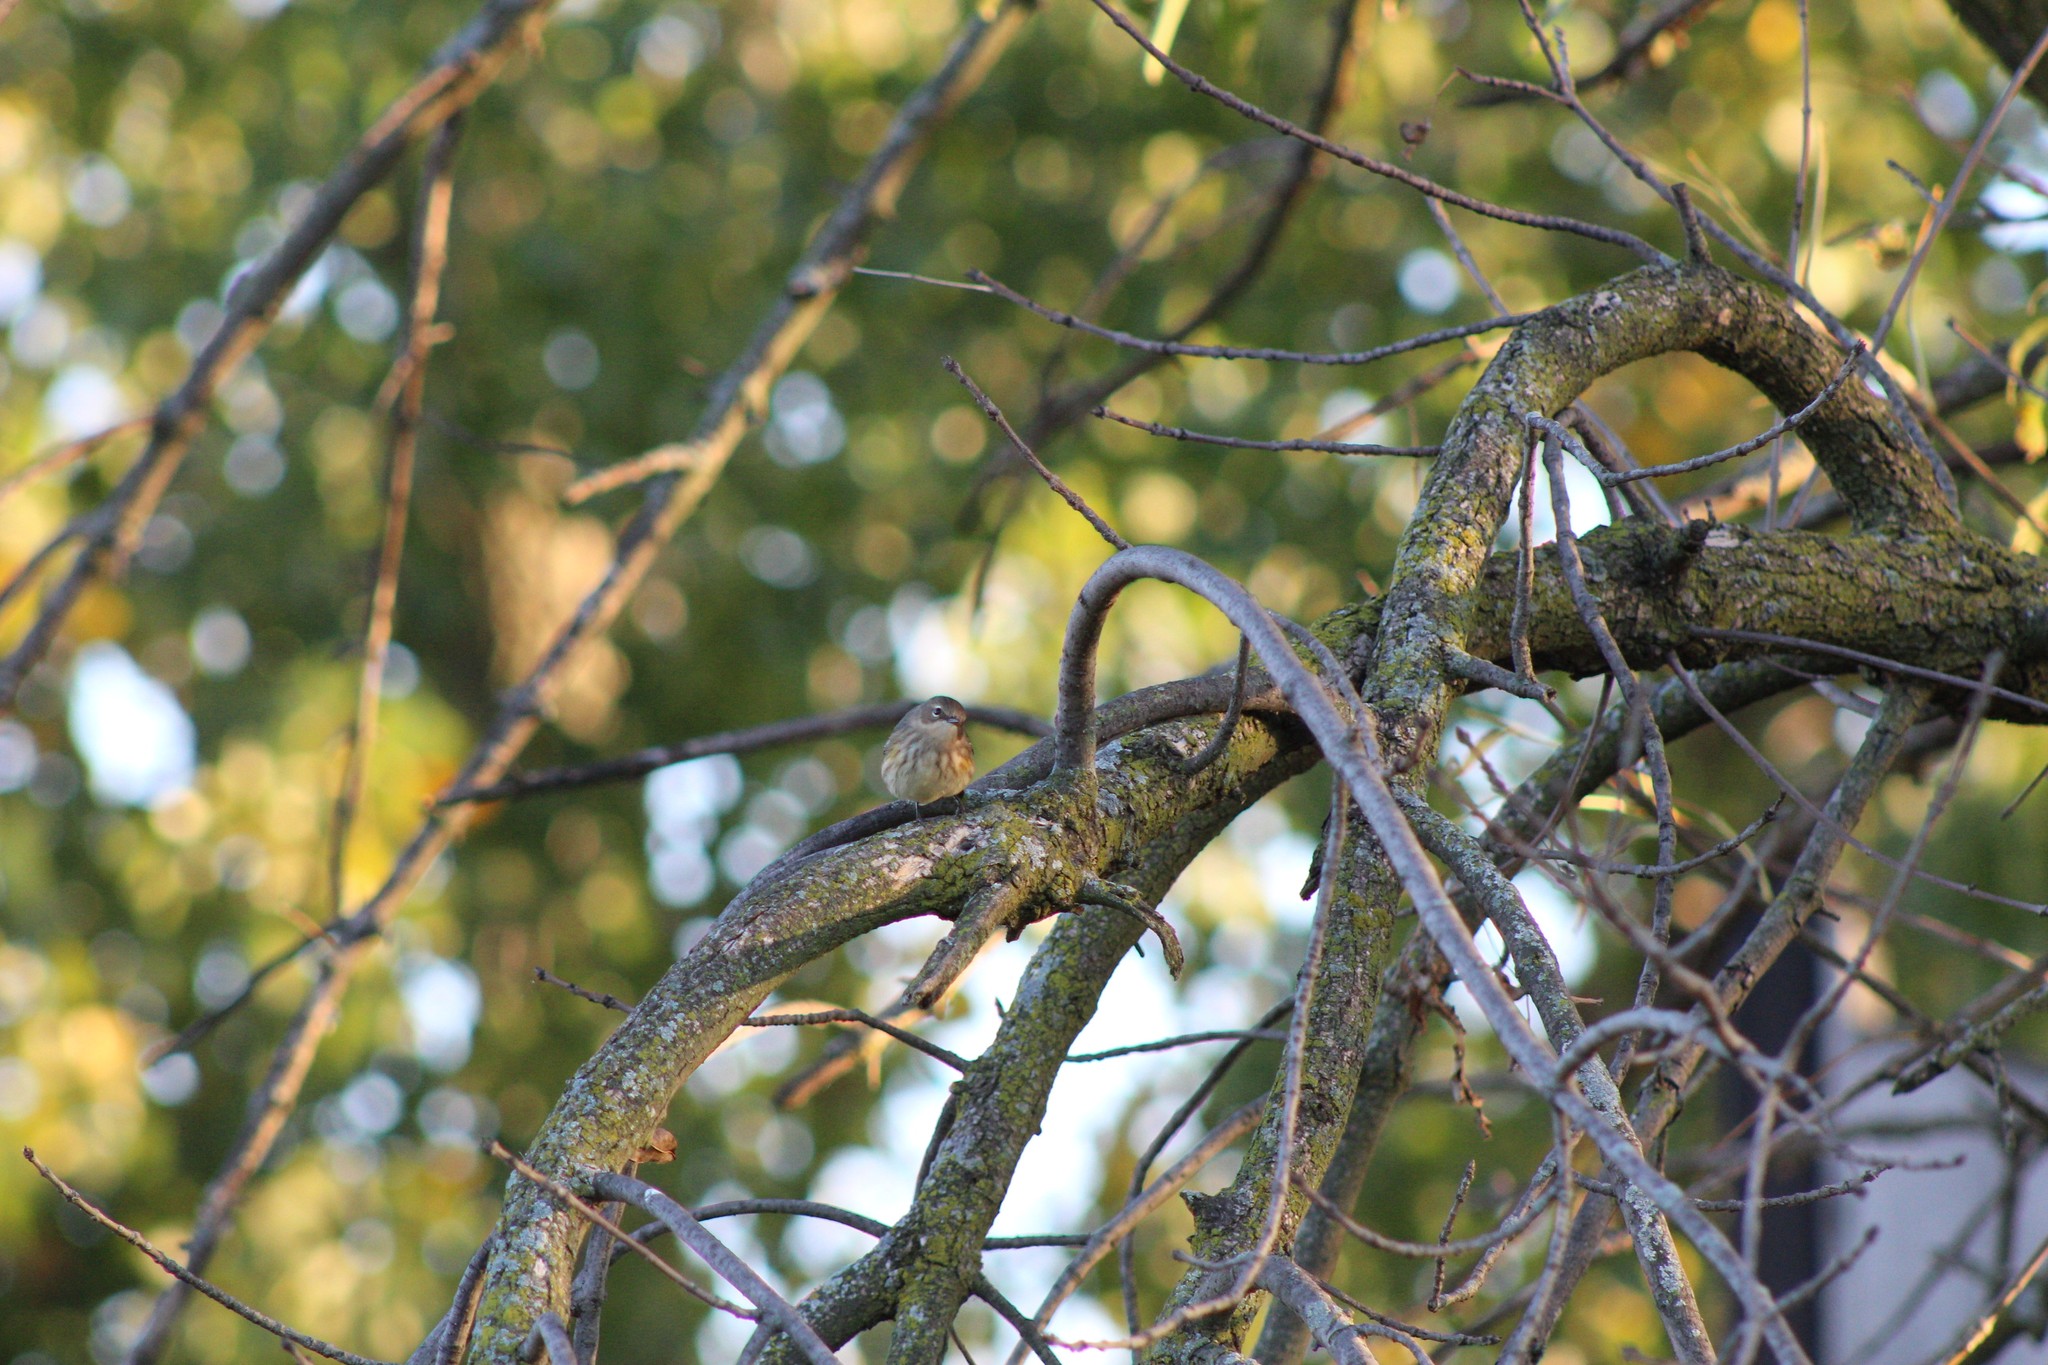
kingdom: Animalia
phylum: Chordata
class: Aves
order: Passeriformes
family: Parulidae
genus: Setophaga
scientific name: Setophaga coronata
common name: Myrtle warbler
